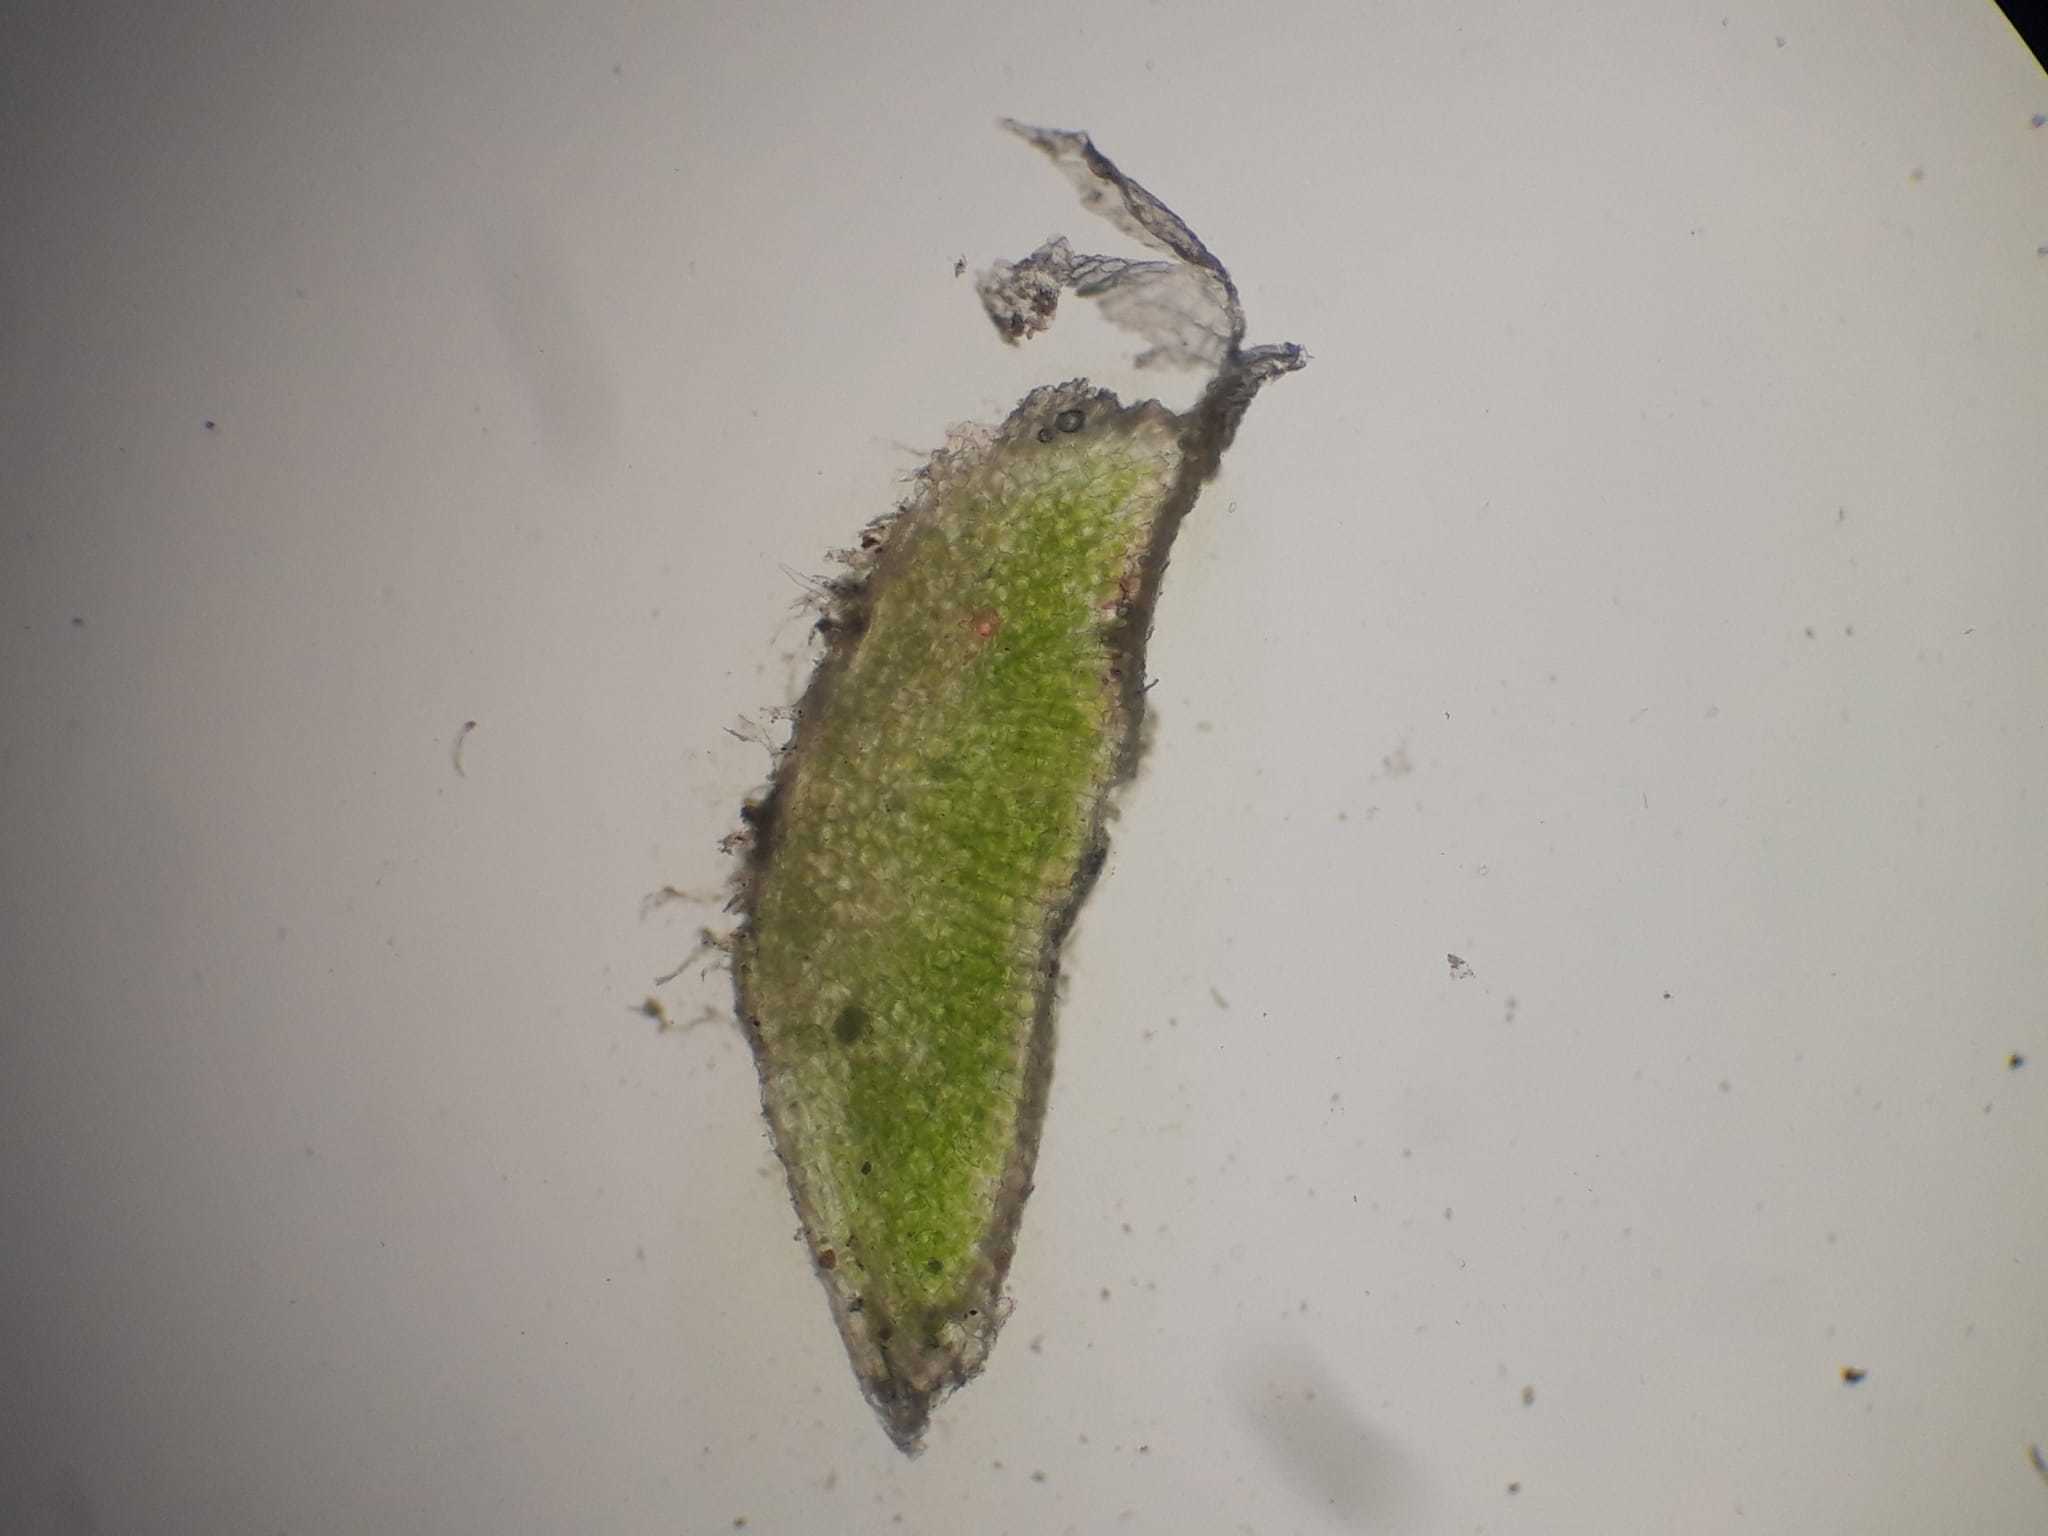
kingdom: Plantae
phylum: Marchantiophyta
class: Marchantiopsida
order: Marchantiales
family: Ricciaceae
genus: Riccia
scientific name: Riccia lamellosa
